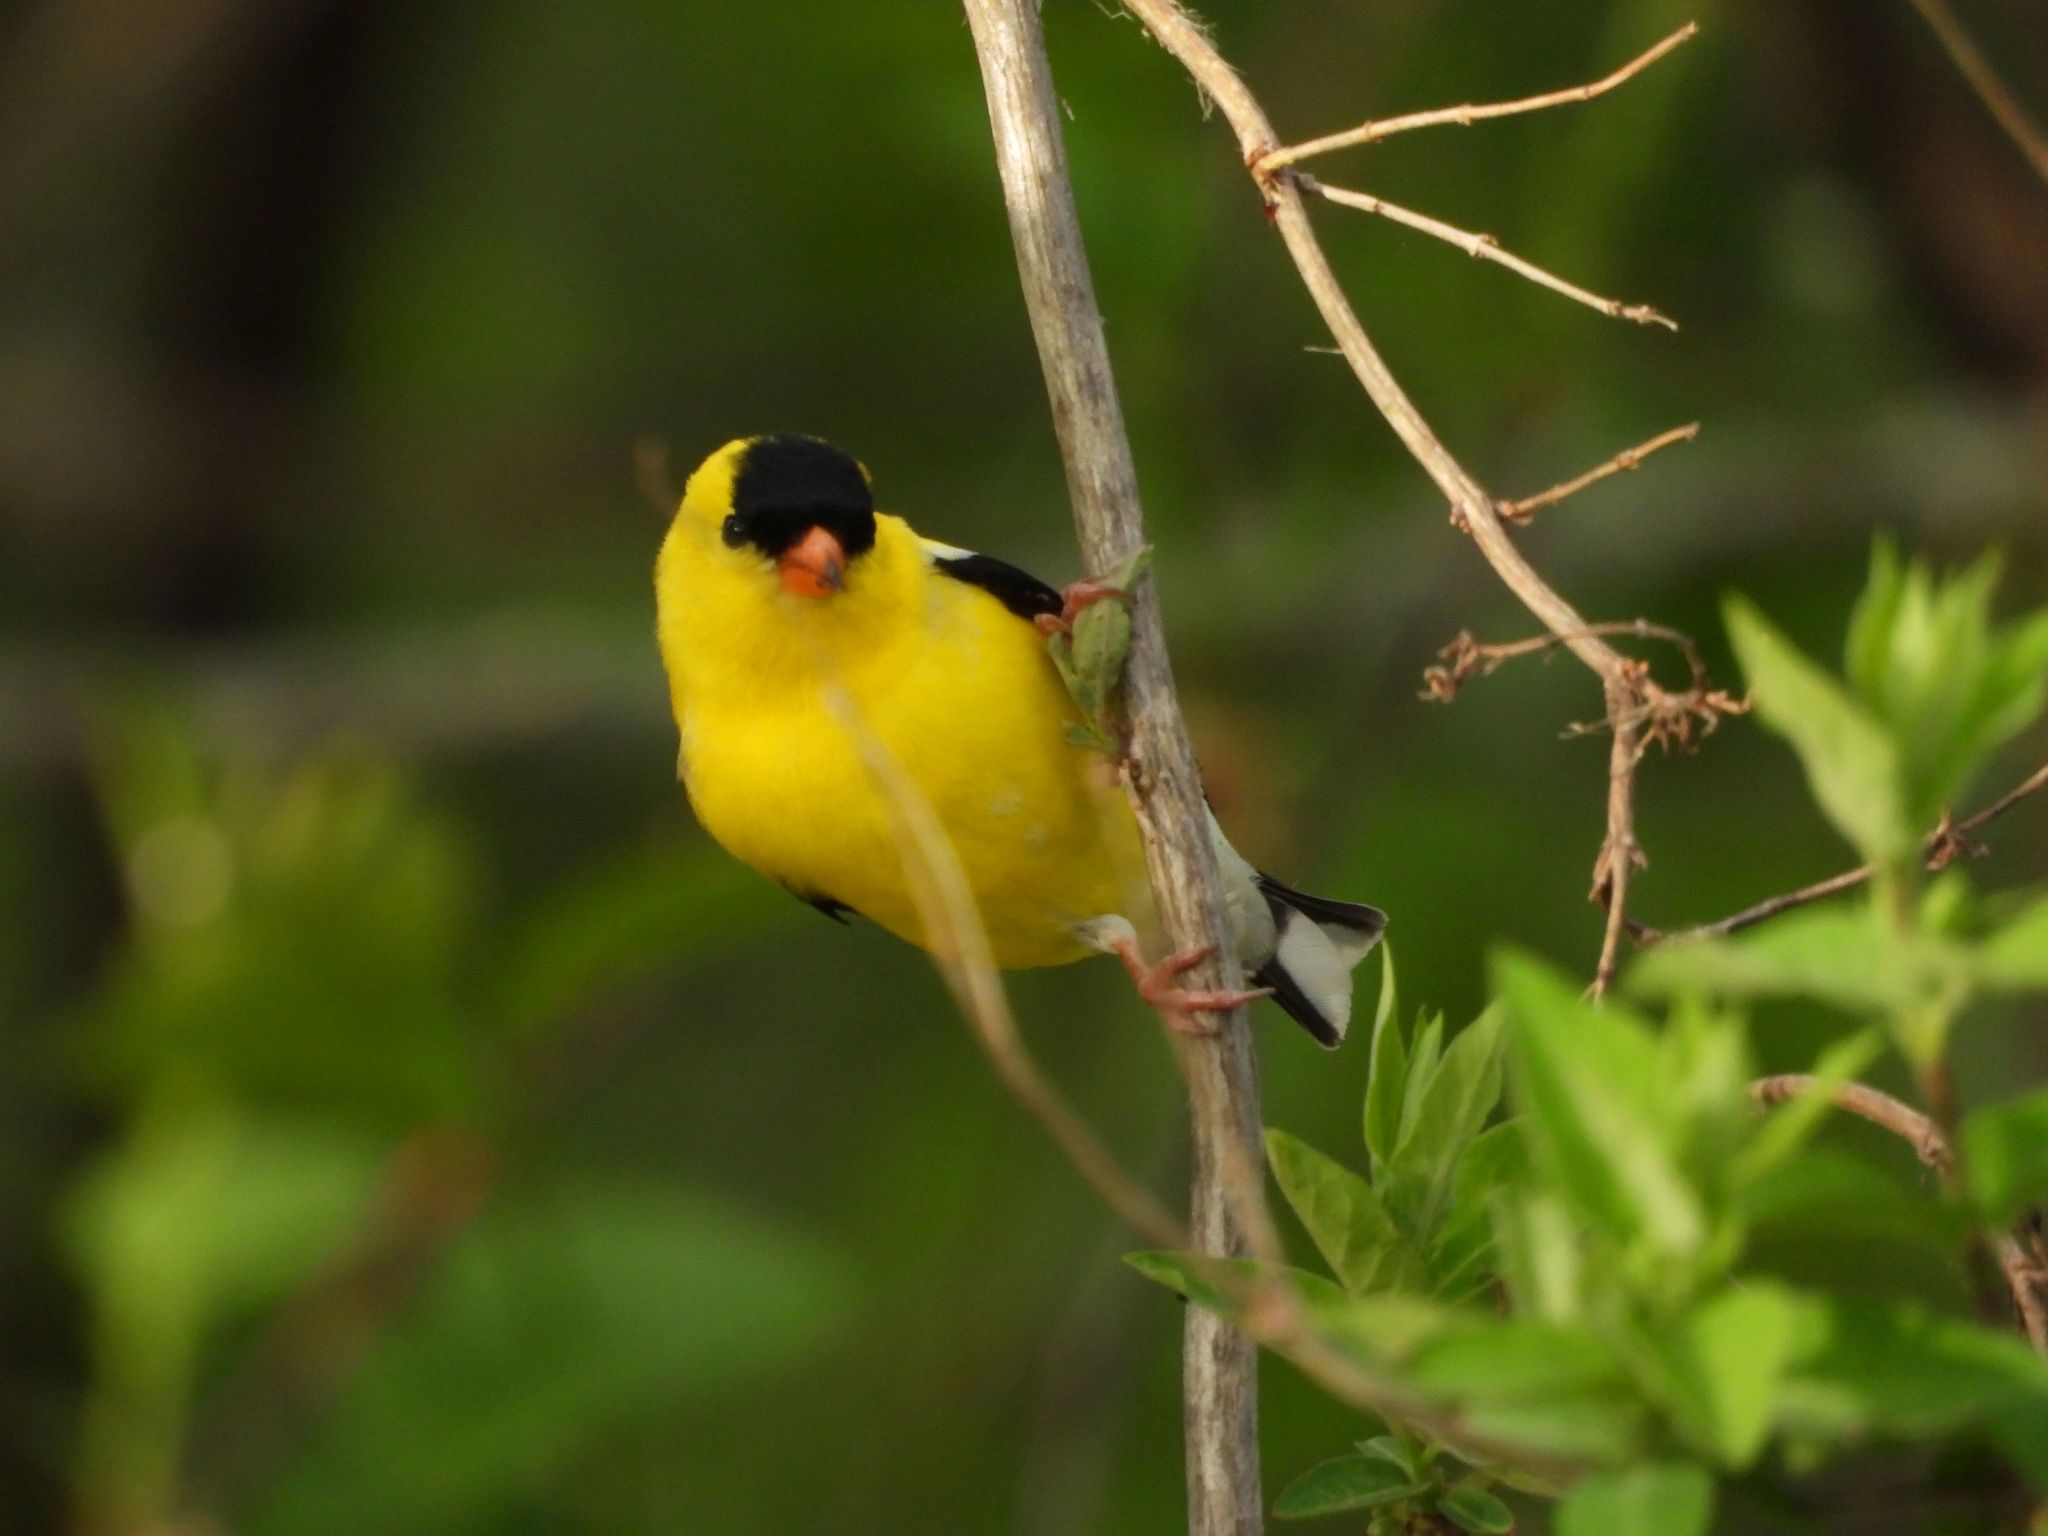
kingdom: Animalia
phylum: Chordata
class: Aves
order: Passeriformes
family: Fringillidae
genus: Spinus
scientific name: Spinus tristis
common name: American goldfinch
